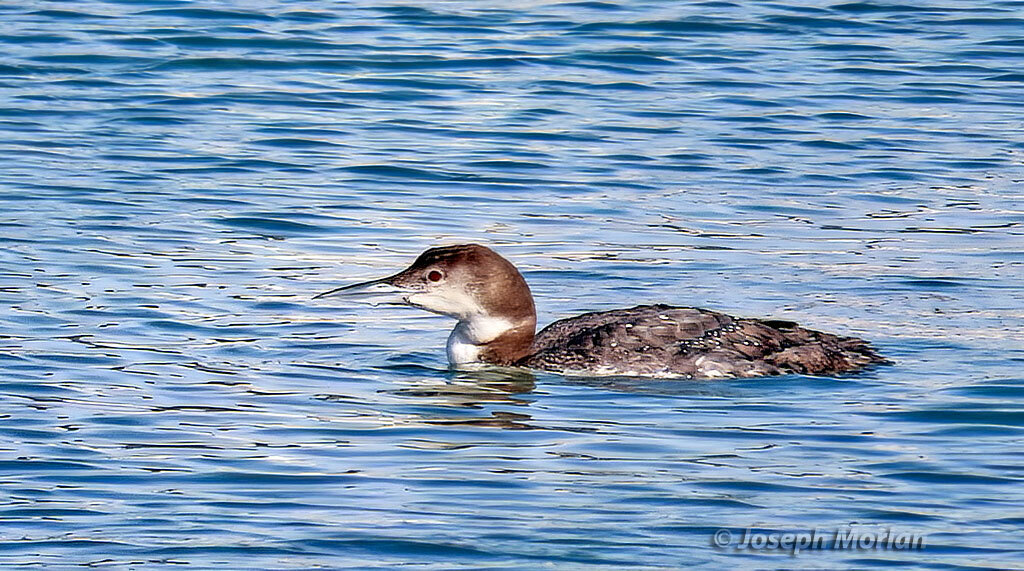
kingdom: Animalia
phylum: Chordata
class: Aves
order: Gaviiformes
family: Gaviidae
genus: Gavia
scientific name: Gavia immer
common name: Common loon
